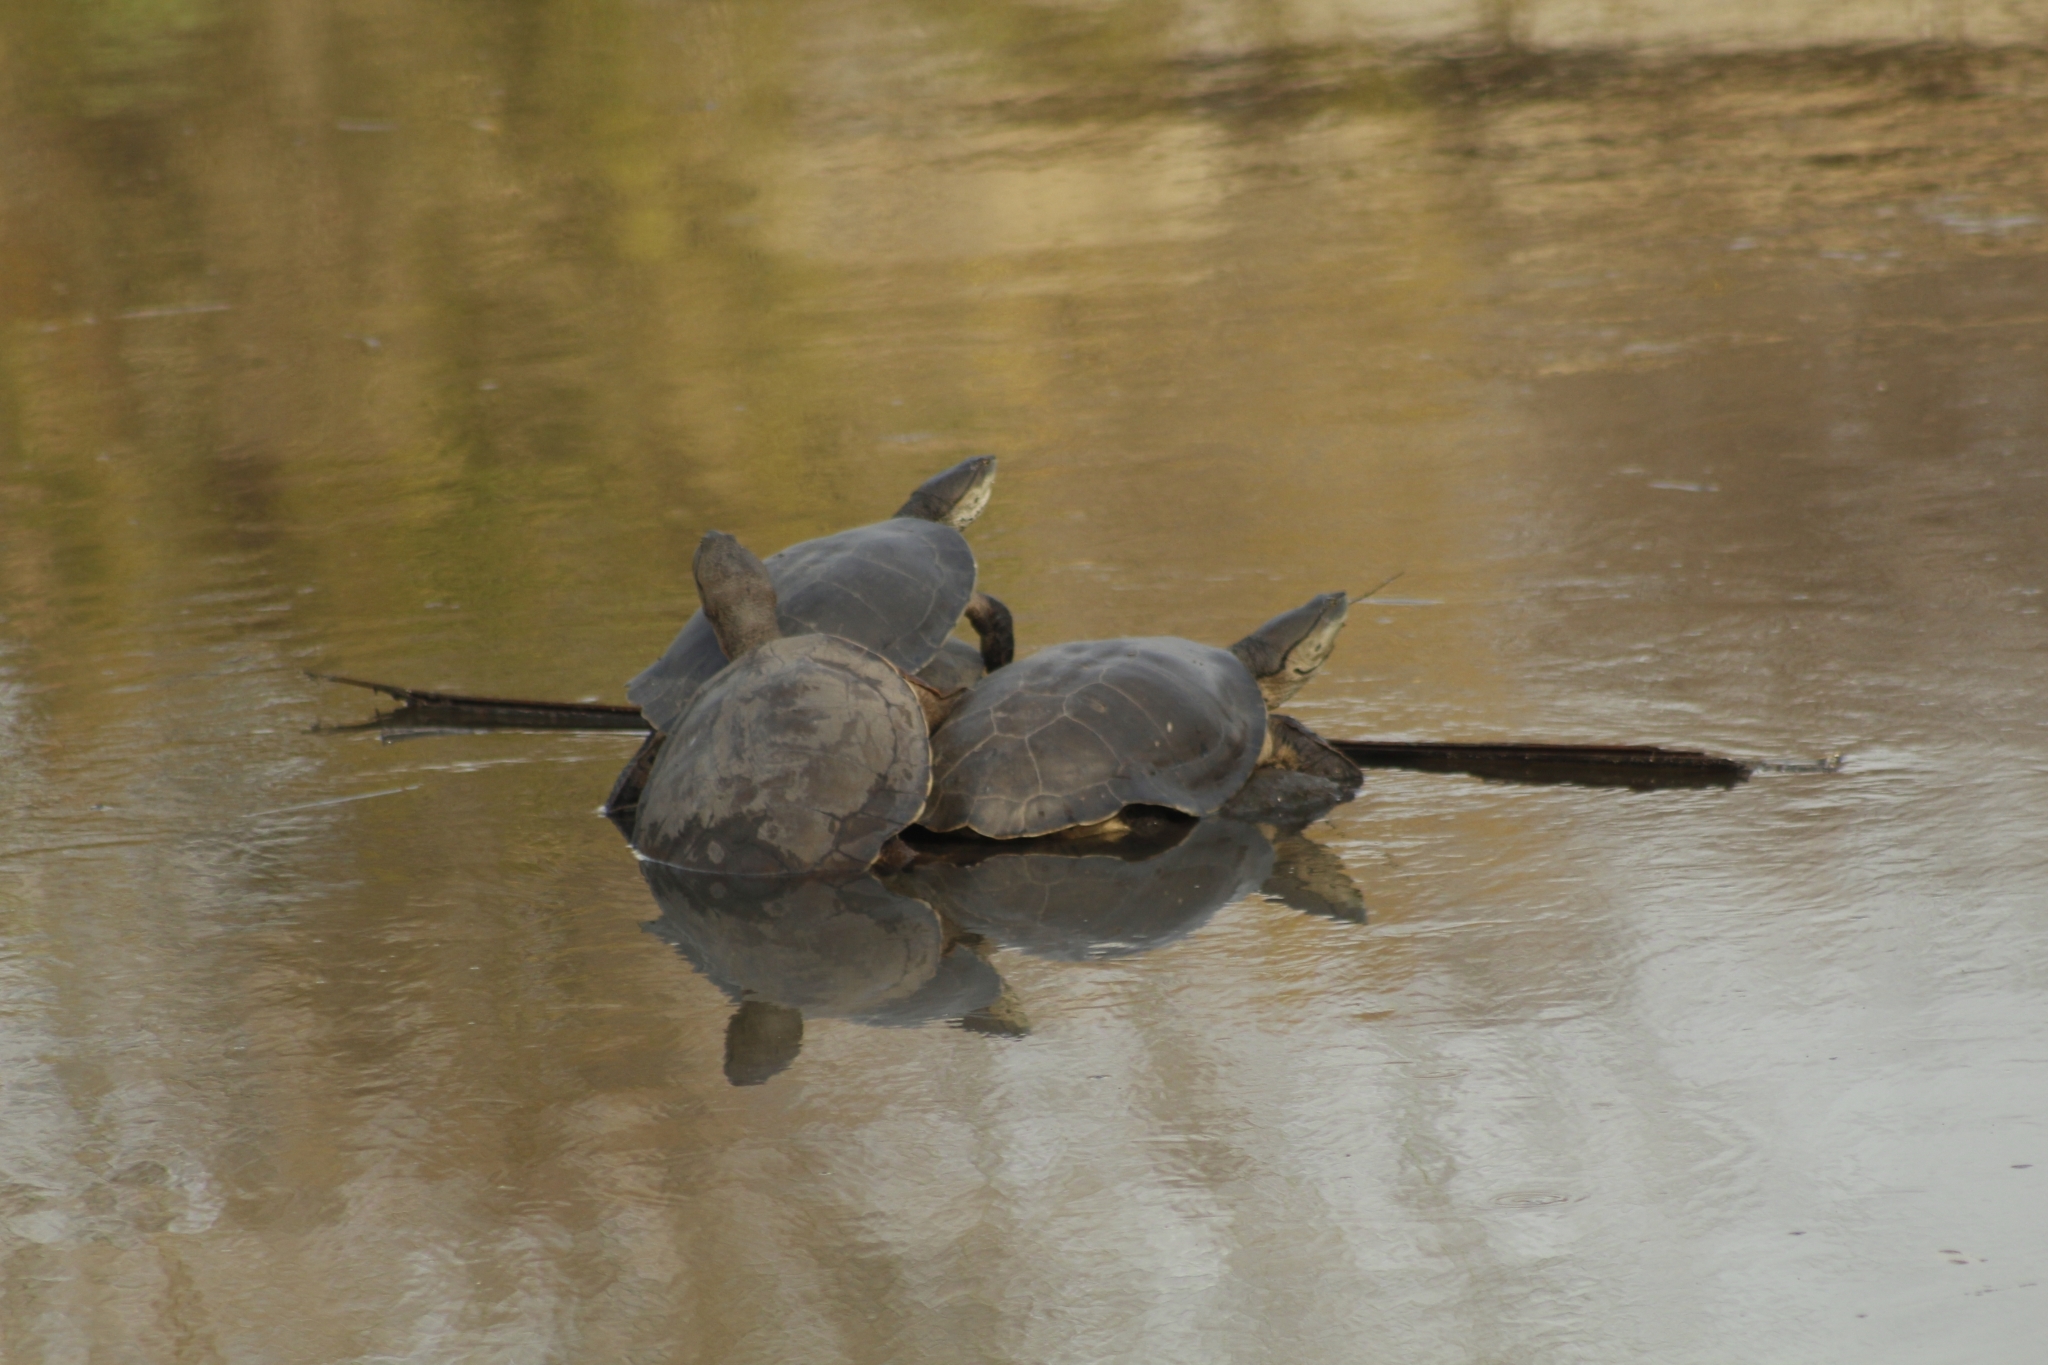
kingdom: Animalia
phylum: Chordata
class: Testudines
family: Chelidae
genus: Phrynops
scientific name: Phrynops hilarii
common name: Side-necked turtle of saint hillaire
